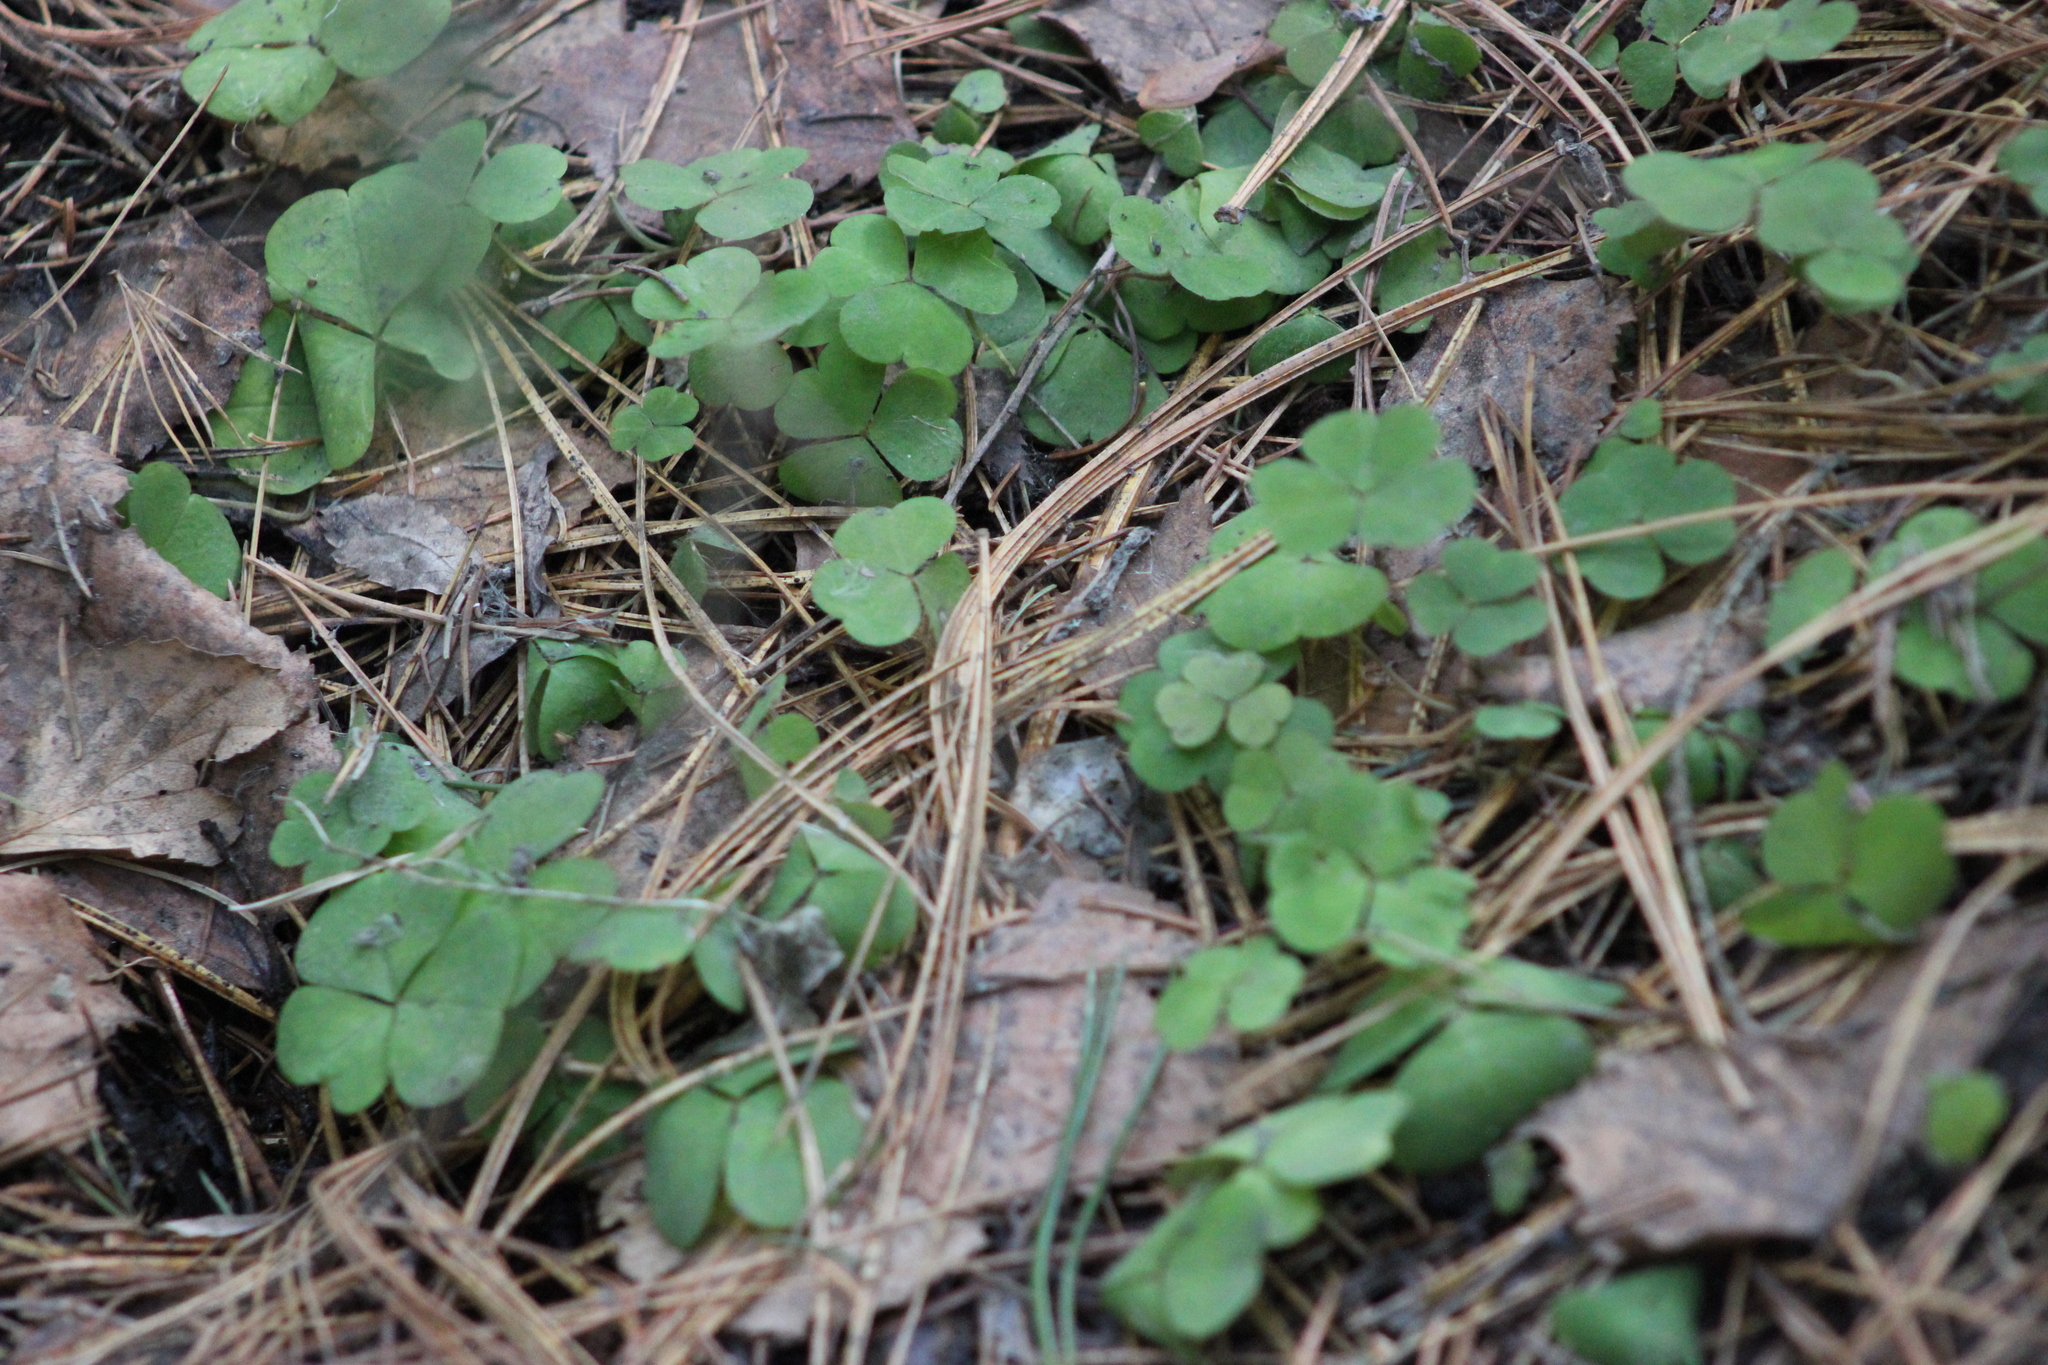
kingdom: Plantae
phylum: Tracheophyta
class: Magnoliopsida
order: Oxalidales
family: Oxalidaceae
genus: Oxalis
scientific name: Oxalis acetosella
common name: Wood-sorrel
